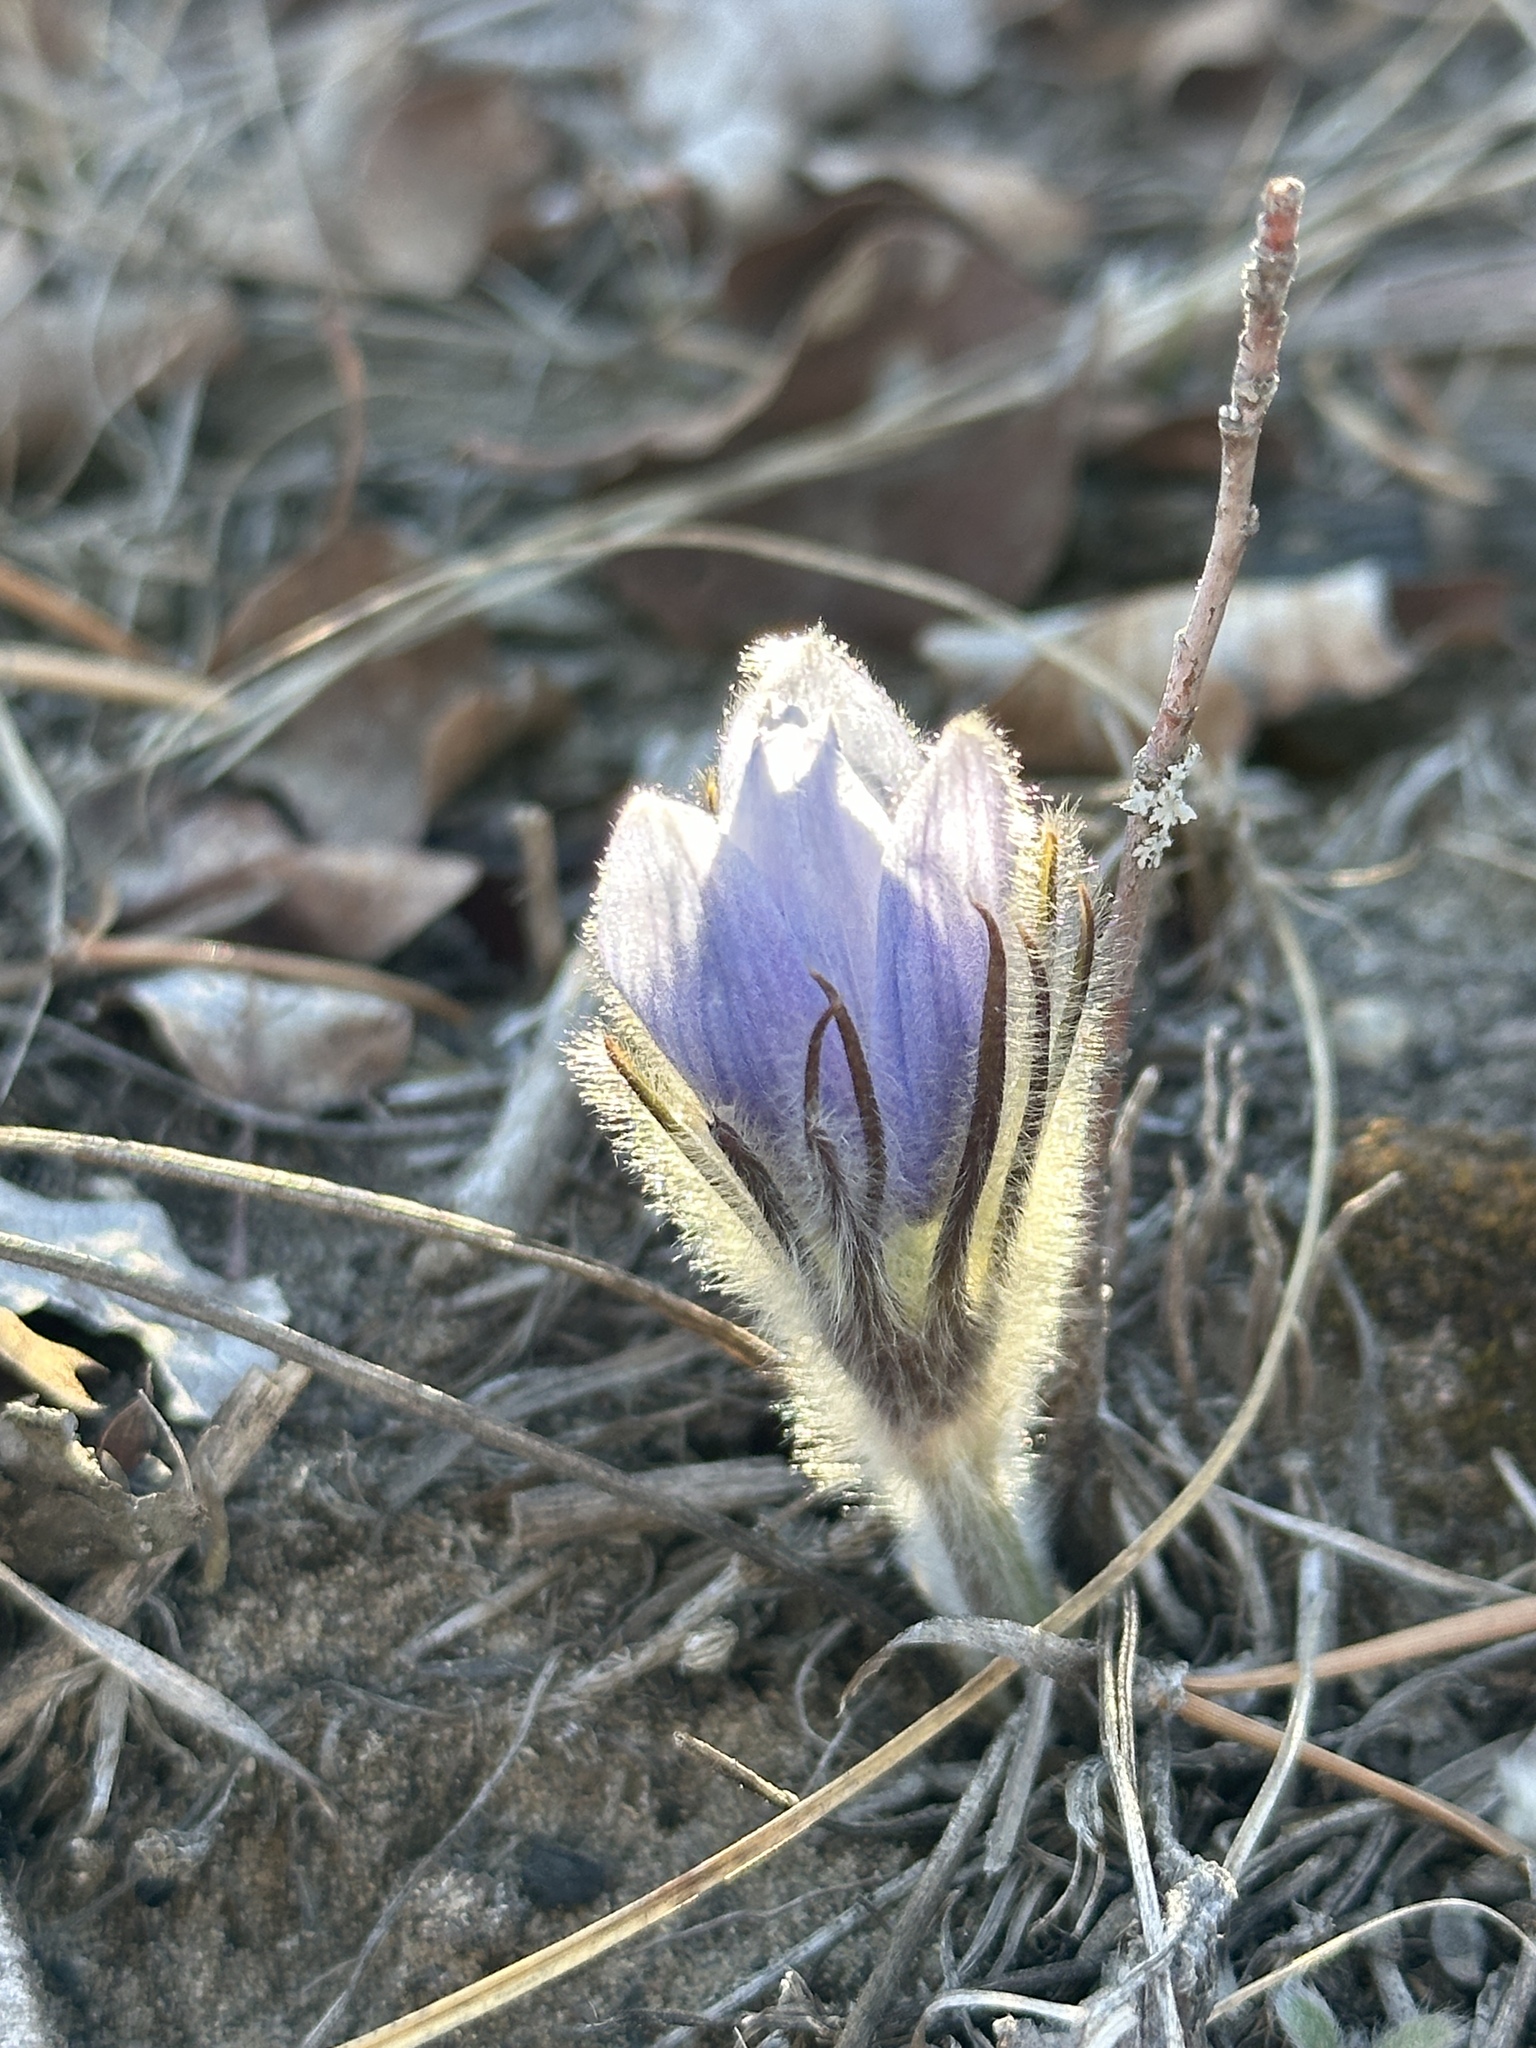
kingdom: Plantae
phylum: Tracheophyta
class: Magnoliopsida
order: Ranunculales
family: Ranunculaceae
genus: Pulsatilla
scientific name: Pulsatilla nuttalliana
